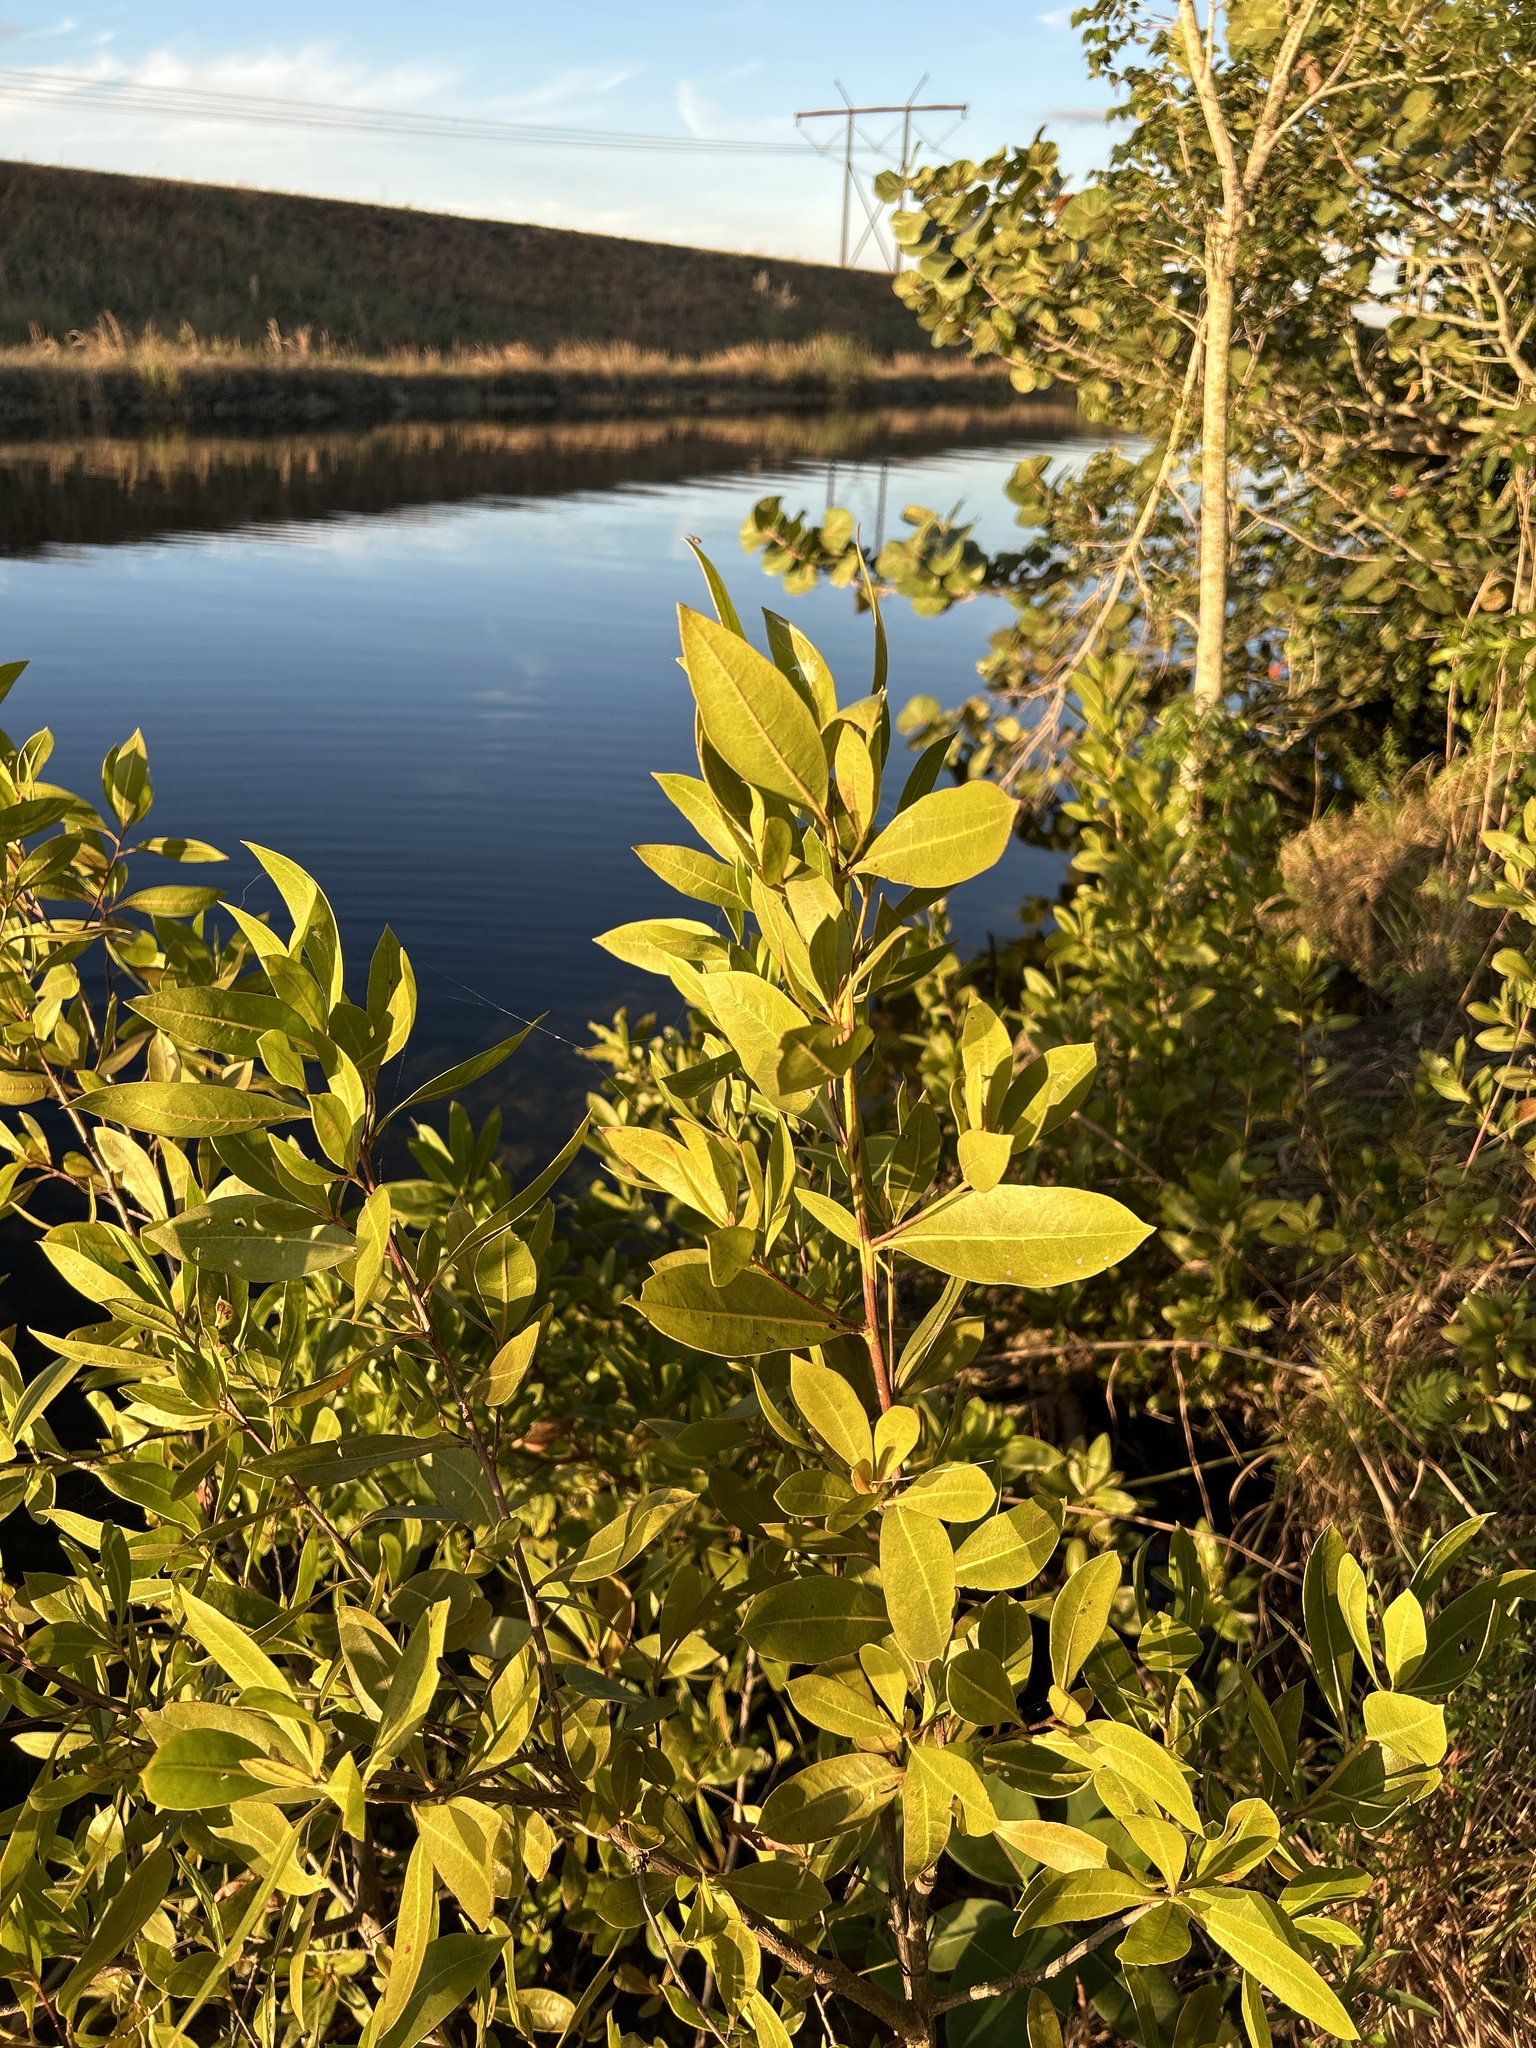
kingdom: Plantae
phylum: Tracheophyta
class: Magnoliopsida
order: Myrtales
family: Combretaceae
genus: Conocarpus
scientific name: Conocarpus erectus
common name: Button mangrove
